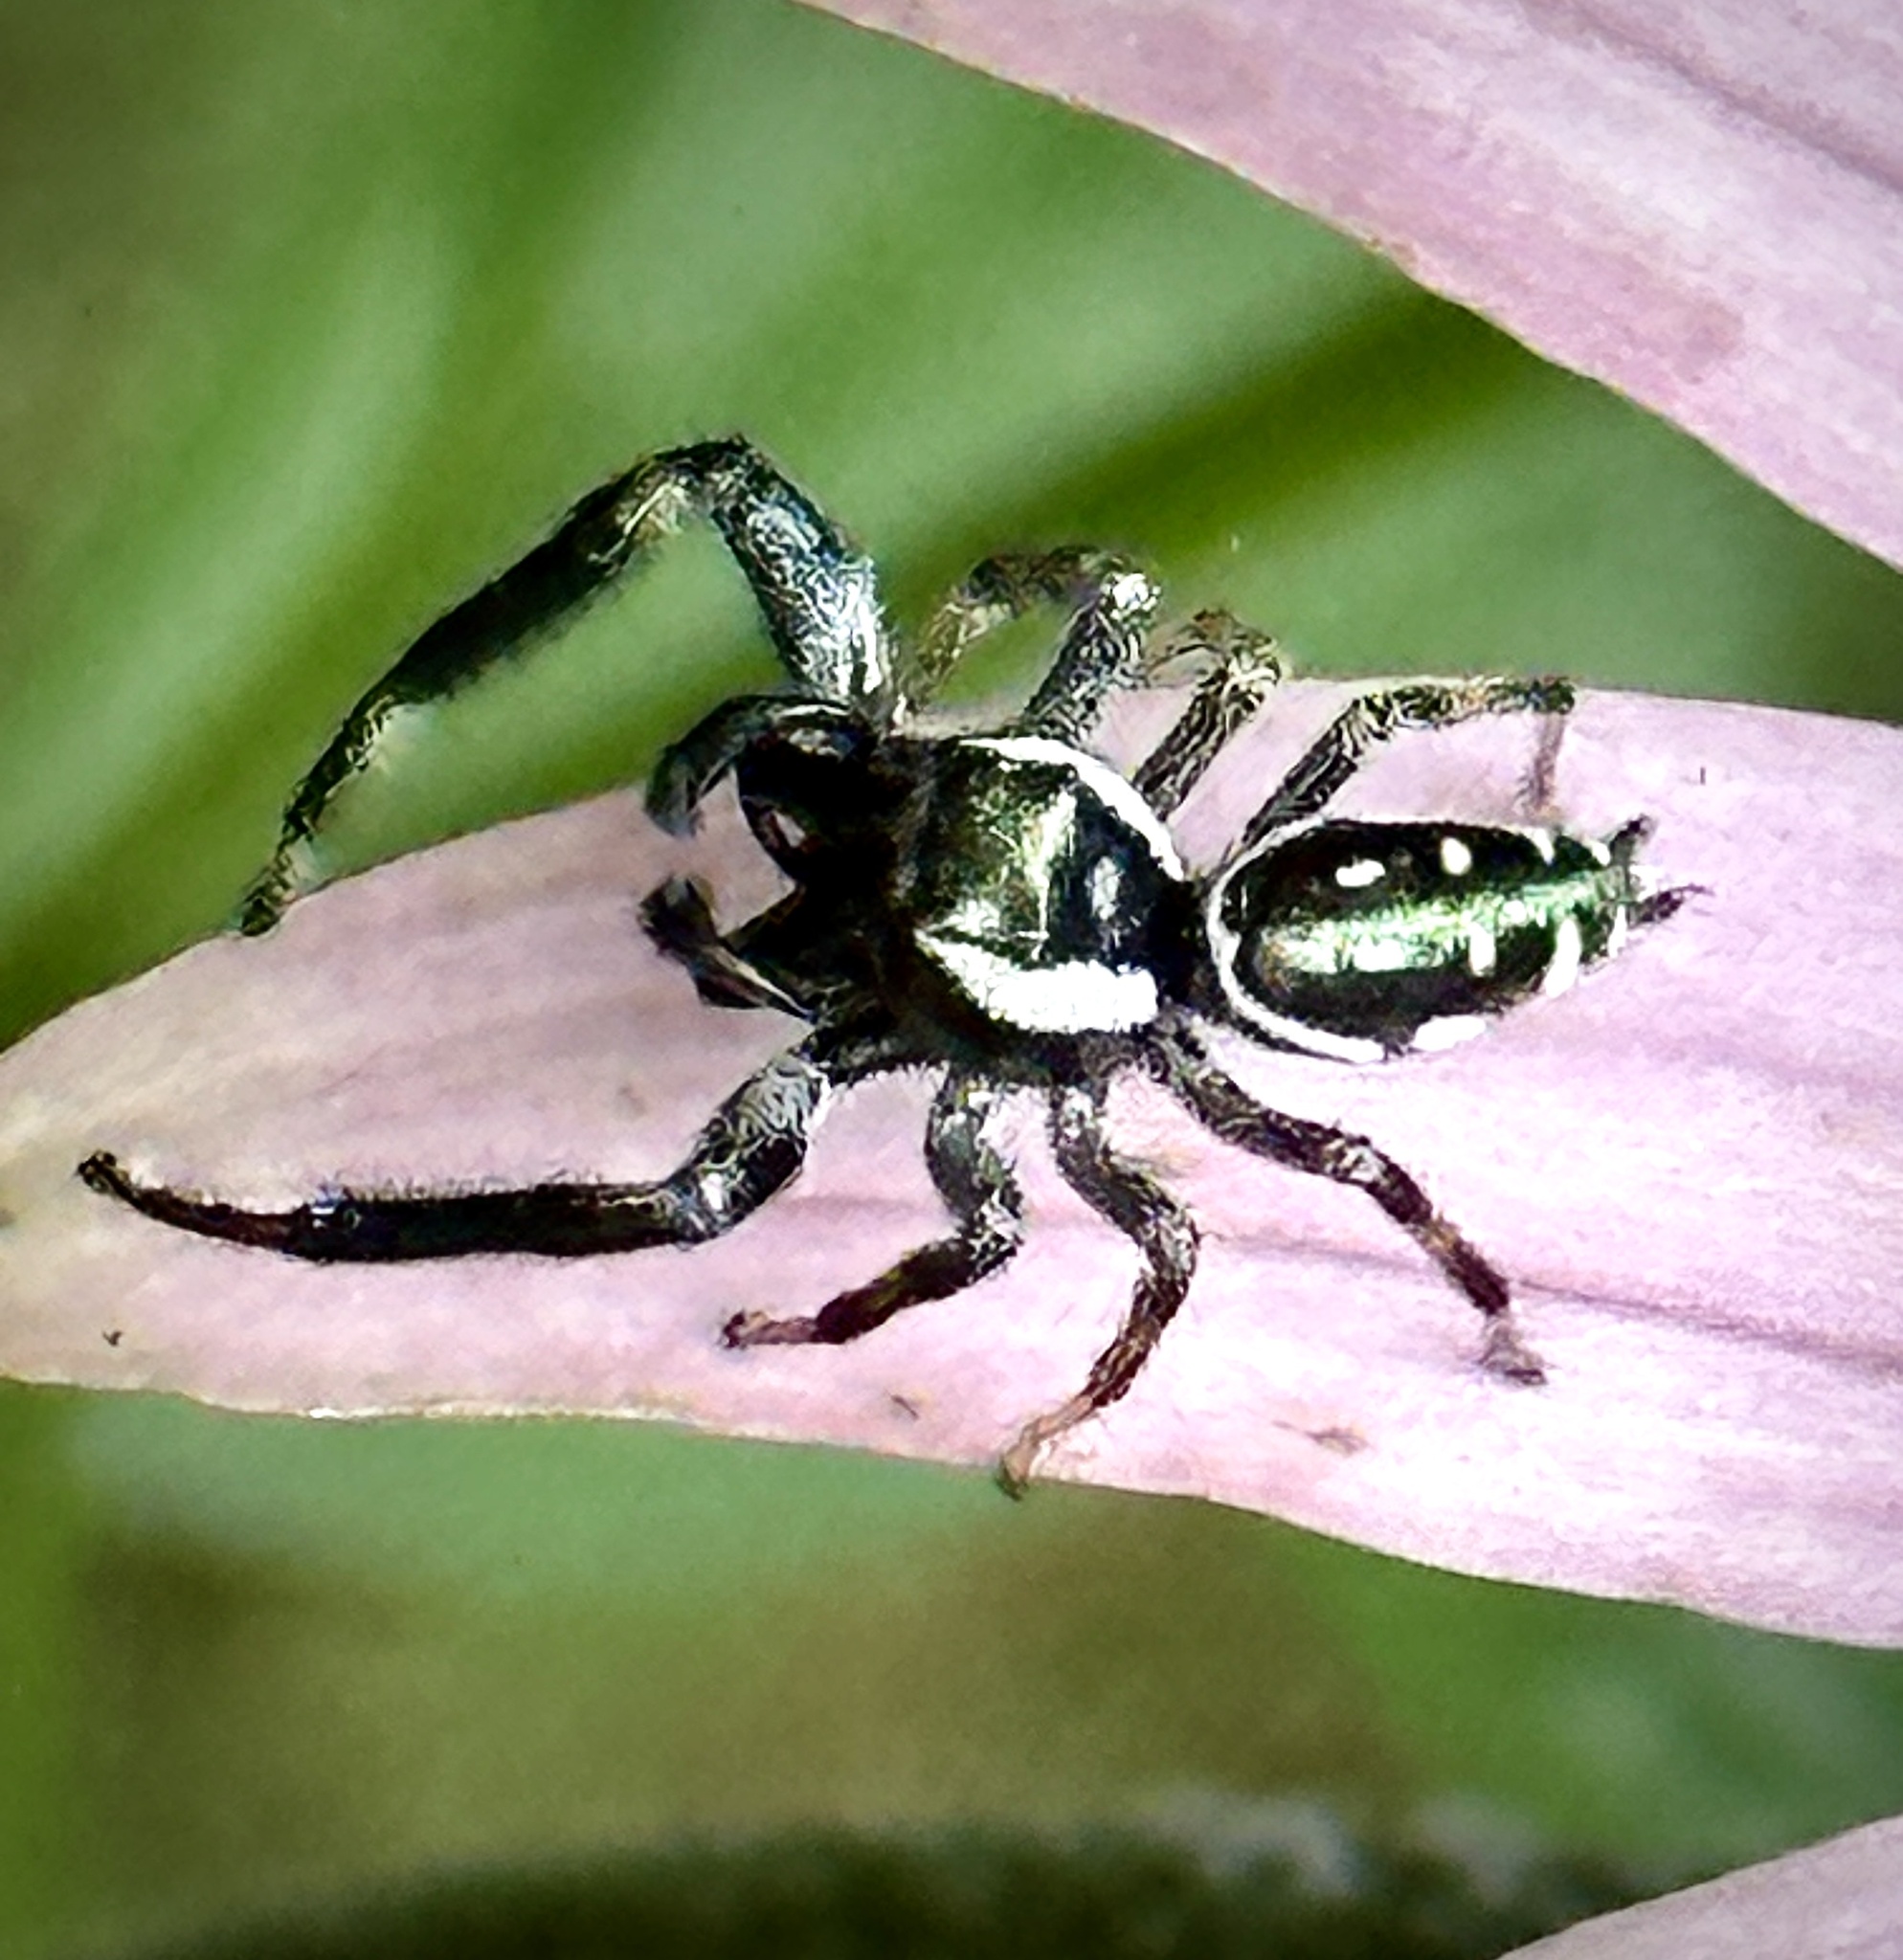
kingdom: Animalia
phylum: Arthropoda
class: Arachnida
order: Araneae
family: Salticidae
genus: Paraphidippus
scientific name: Paraphidippus aurantius
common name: Jumping spiders
